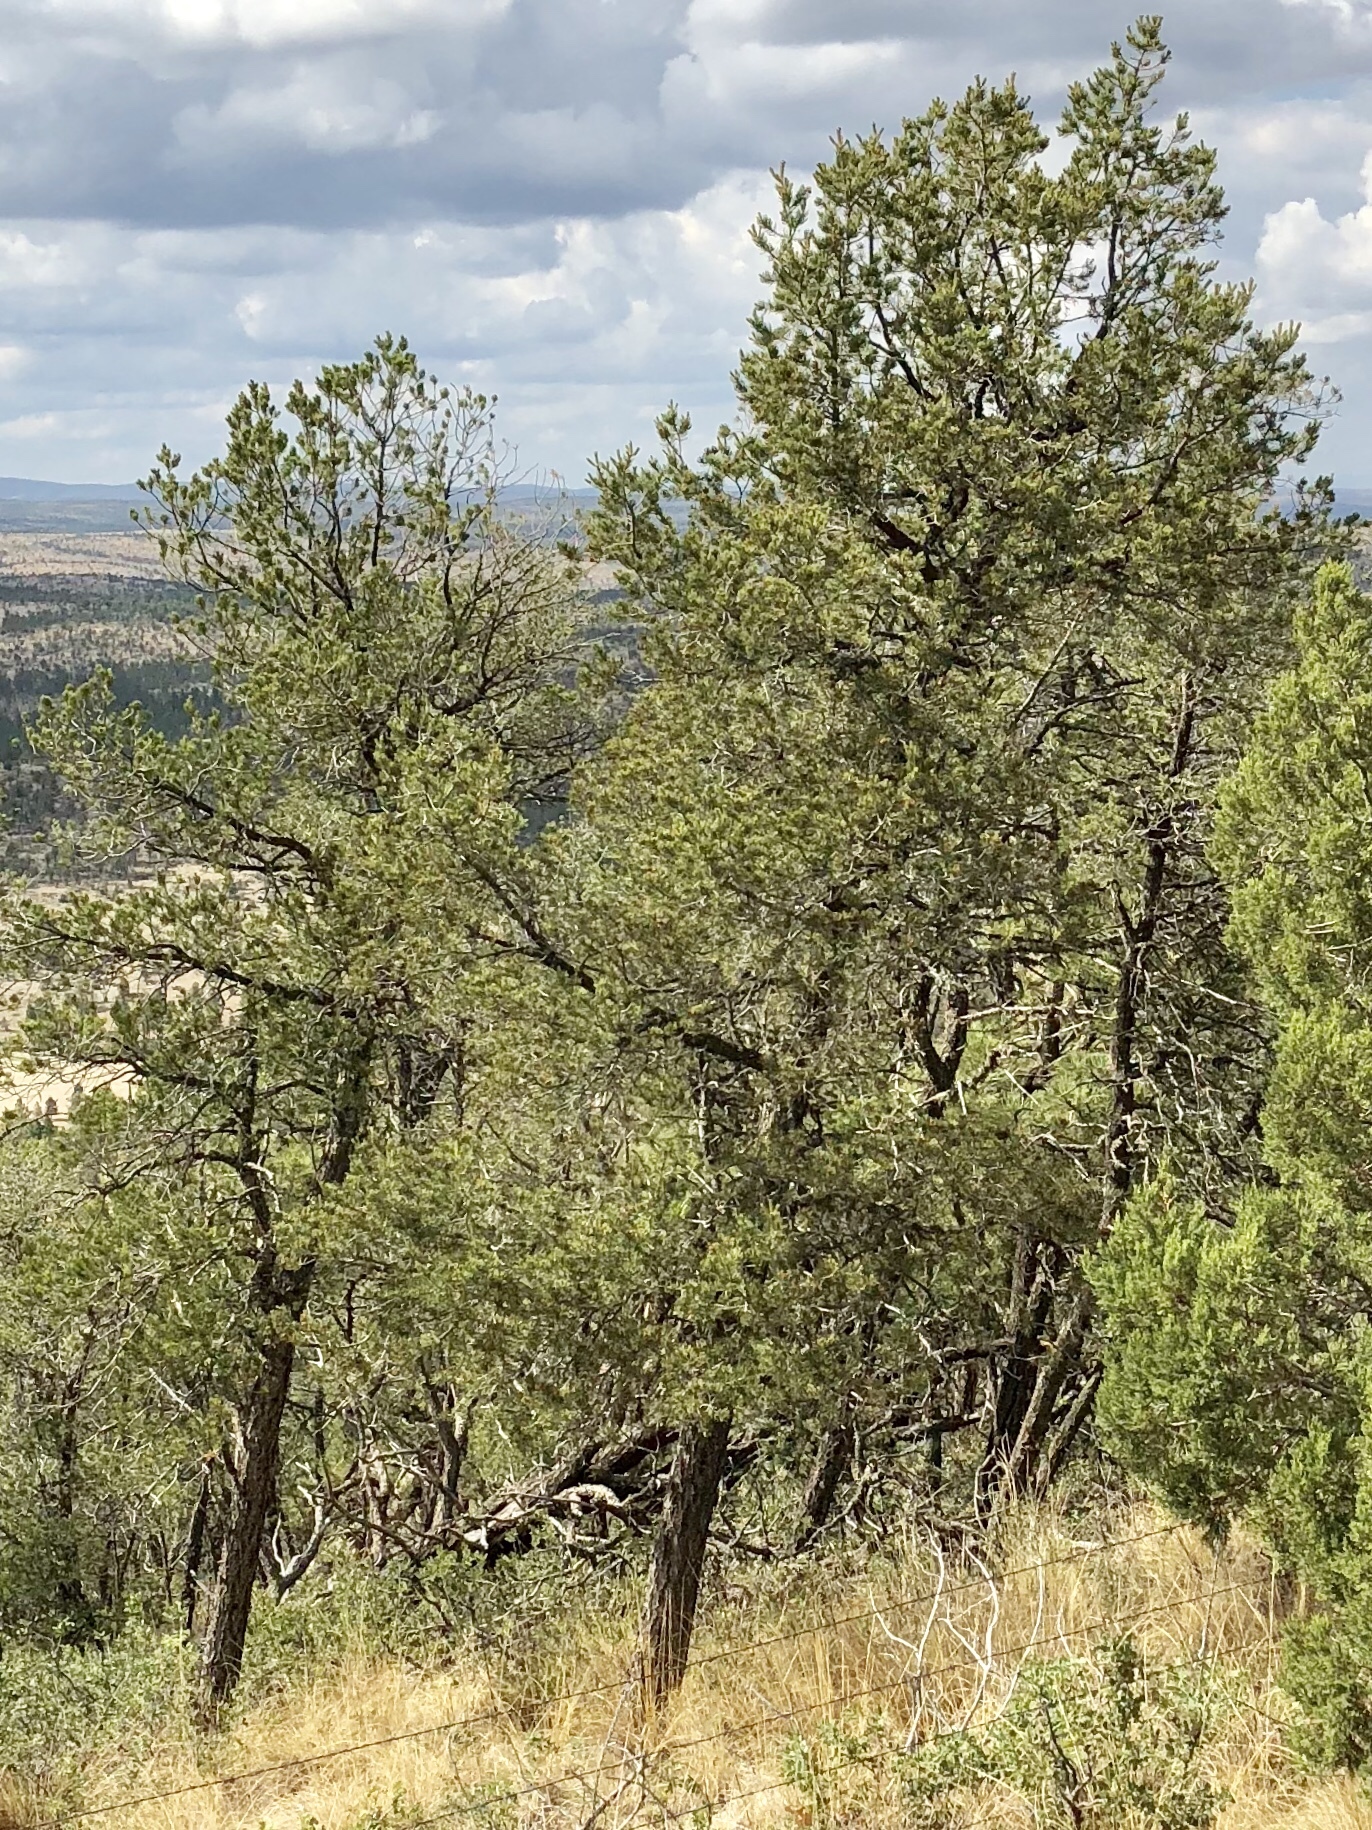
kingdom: Plantae
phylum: Tracheophyta
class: Pinopsida
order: Pinales
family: Pinaceae
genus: Pinus
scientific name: Pinus edulis
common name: Colorado pinyon
